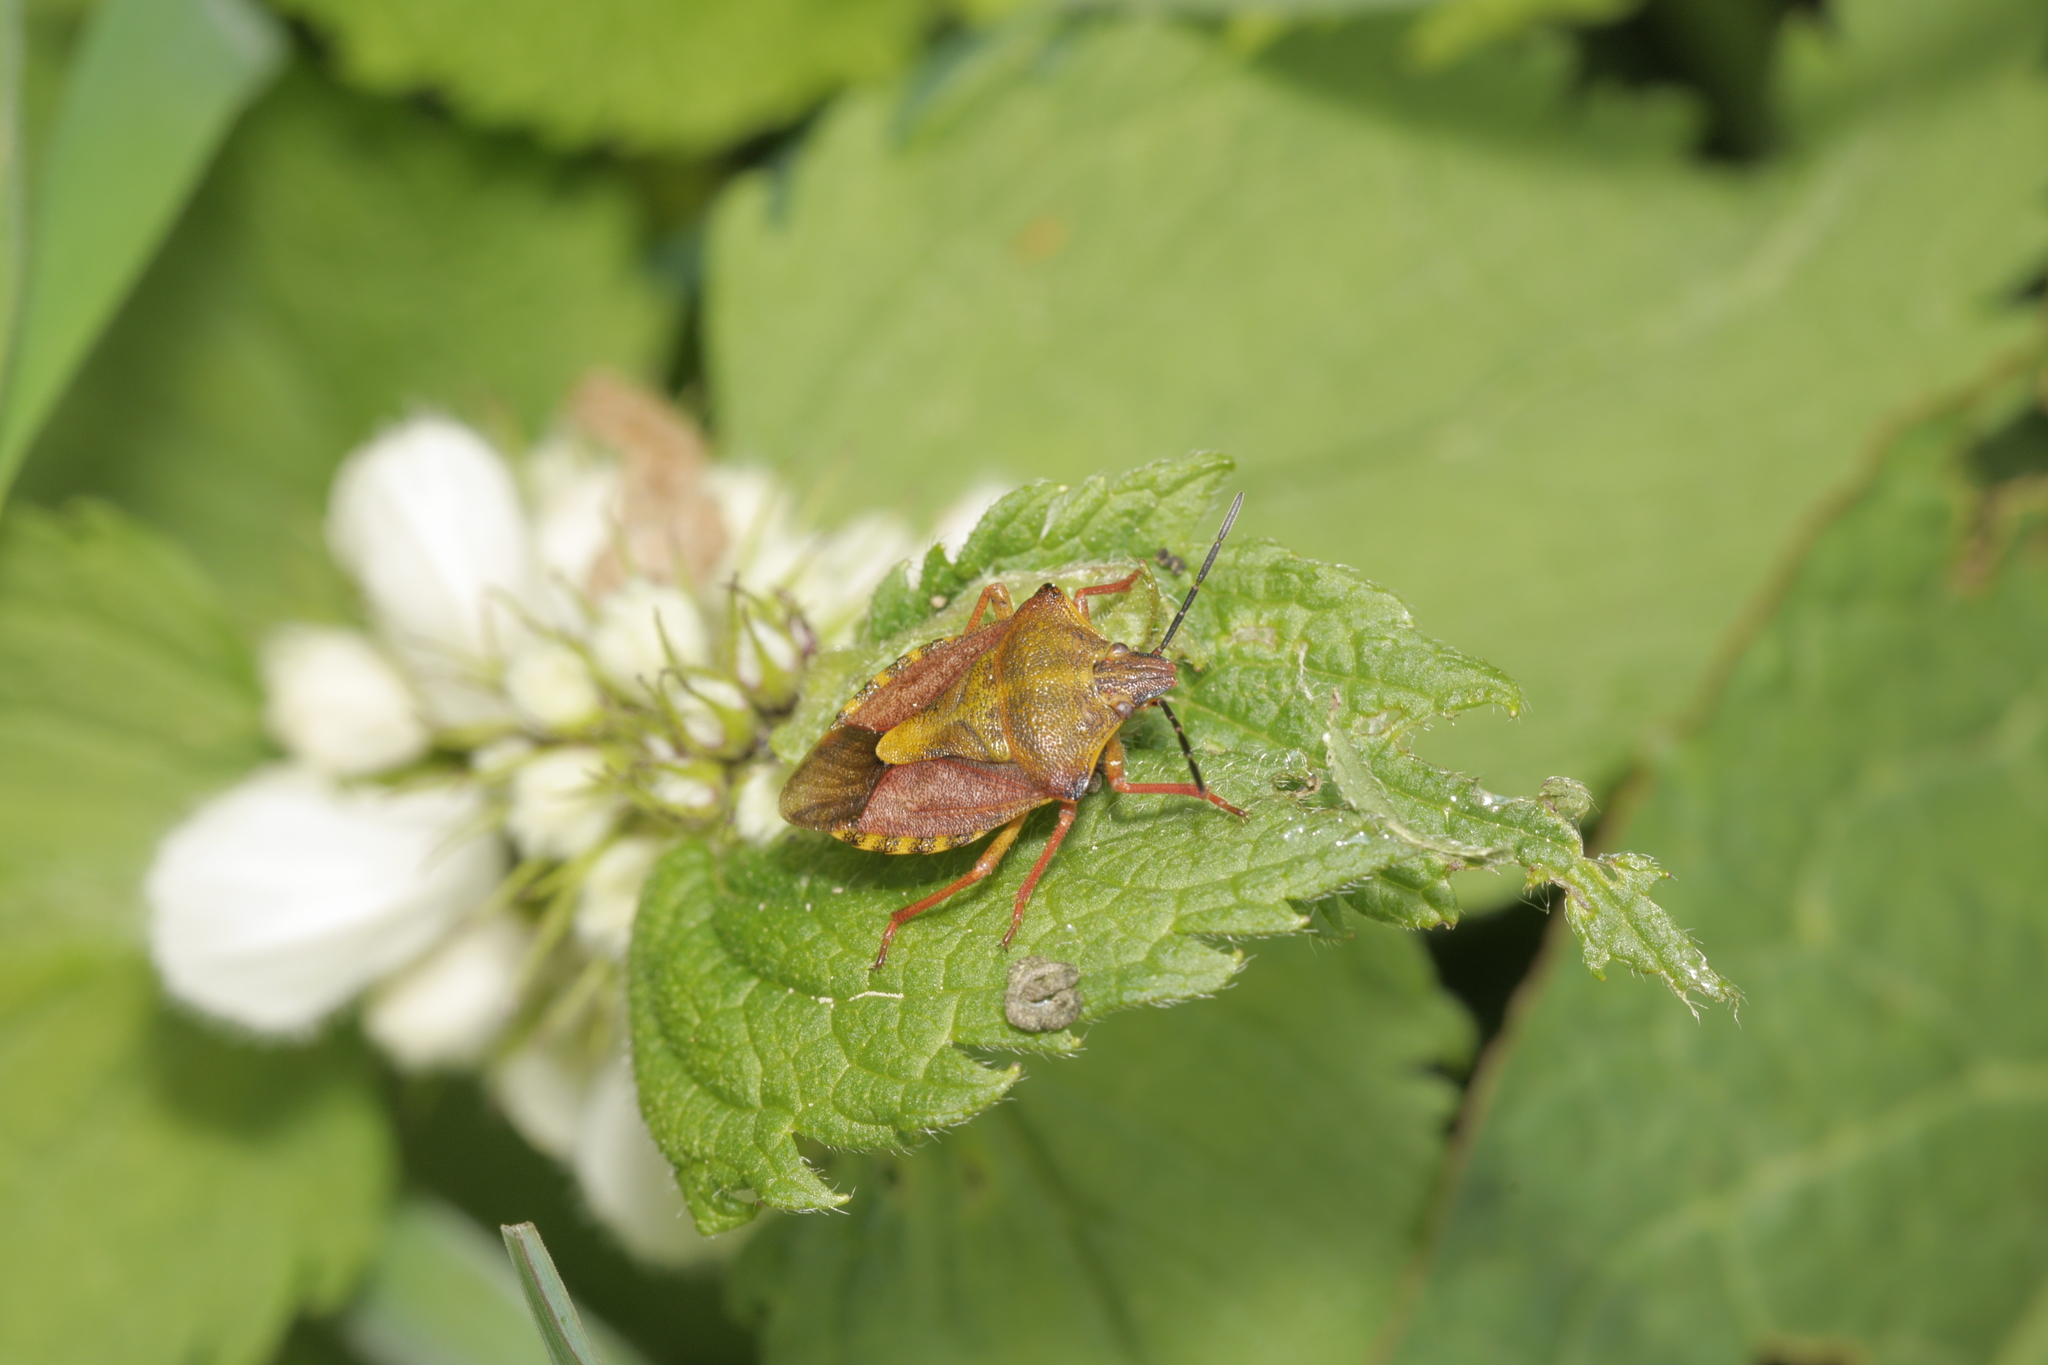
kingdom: Animalia
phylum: Arthropoda
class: Insecta
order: Hemiptera
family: Pentatomidae
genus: Carpocoris
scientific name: Carpocoris purpureipennis
